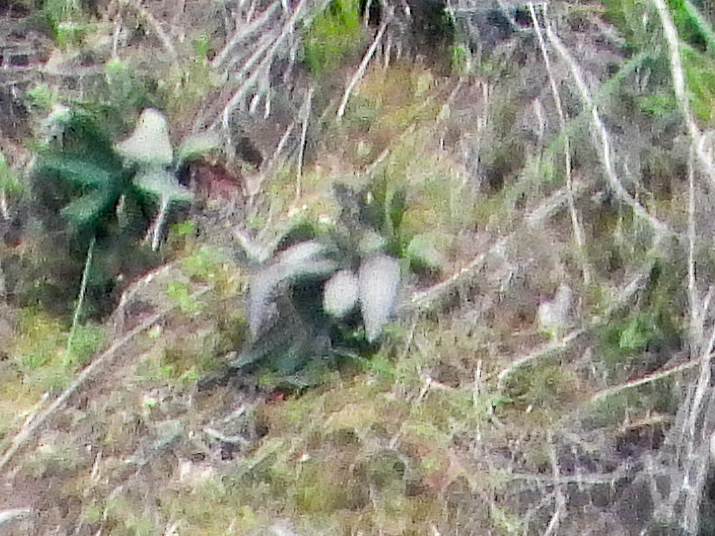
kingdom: Plantae
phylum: Tracheophyta
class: Magnoliopsida
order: Saxifragales
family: Crassulaceae
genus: Dudleya
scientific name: Dudleya lanceolata
